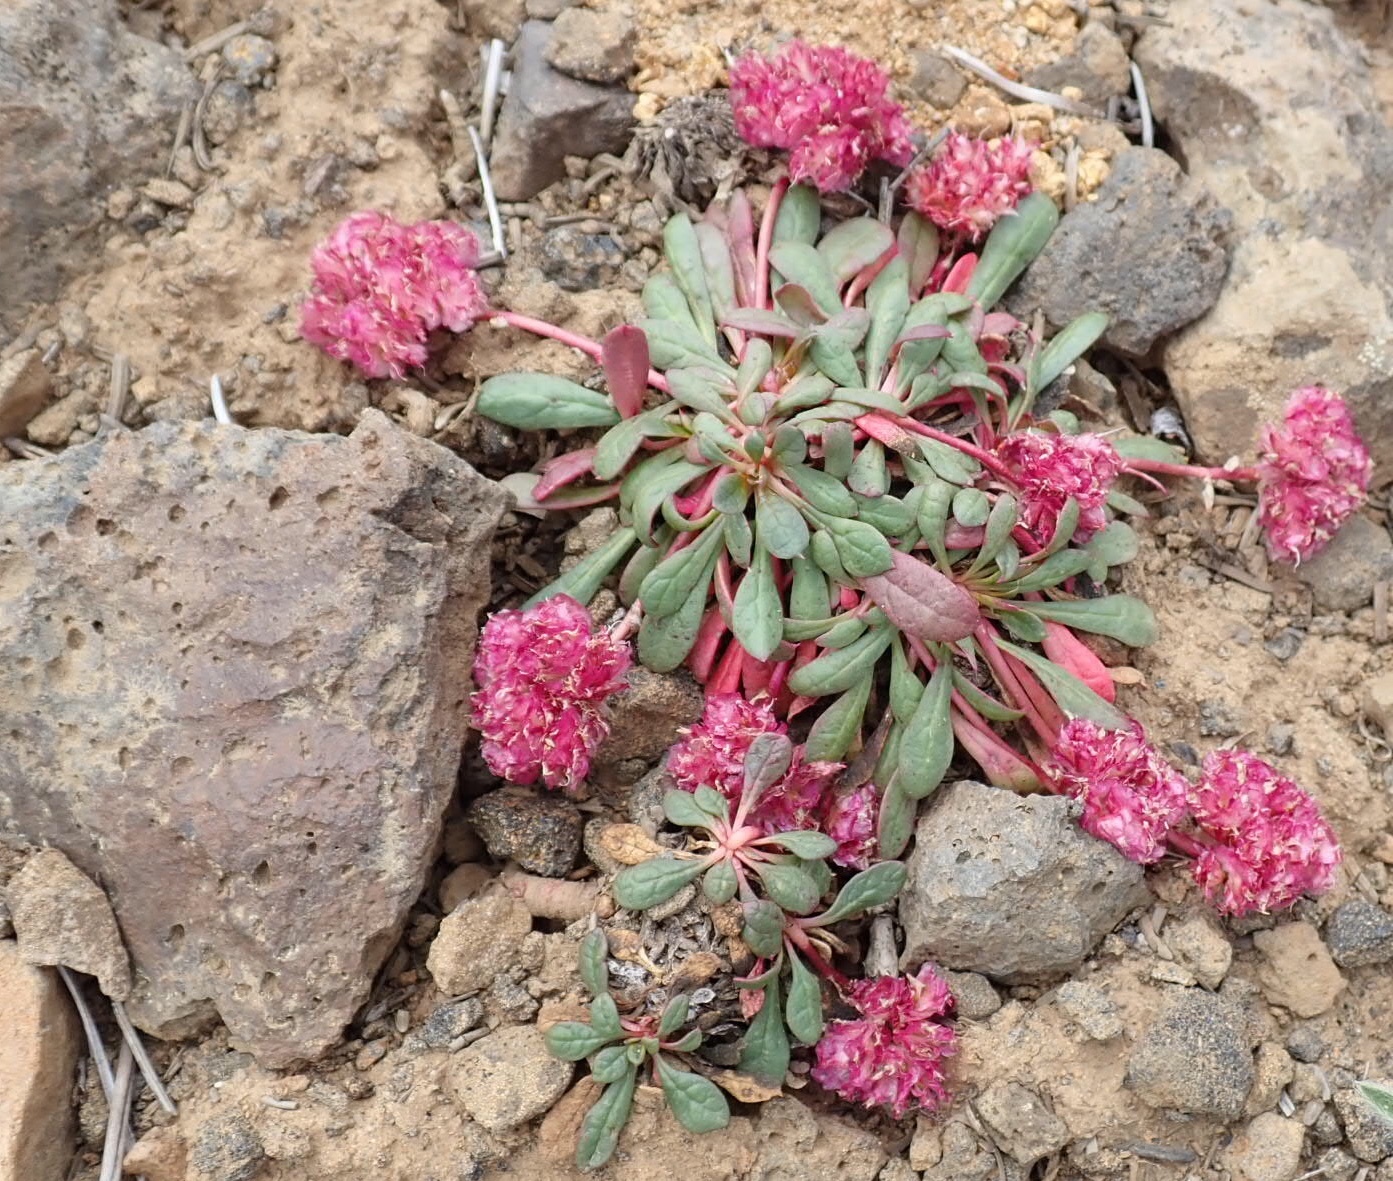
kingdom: Plantae
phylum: Tracheophyta
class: Magnoliopsida
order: Caryophyllales
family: Montiaceae
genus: Calyptridium
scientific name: Calyptridium umbellatum
